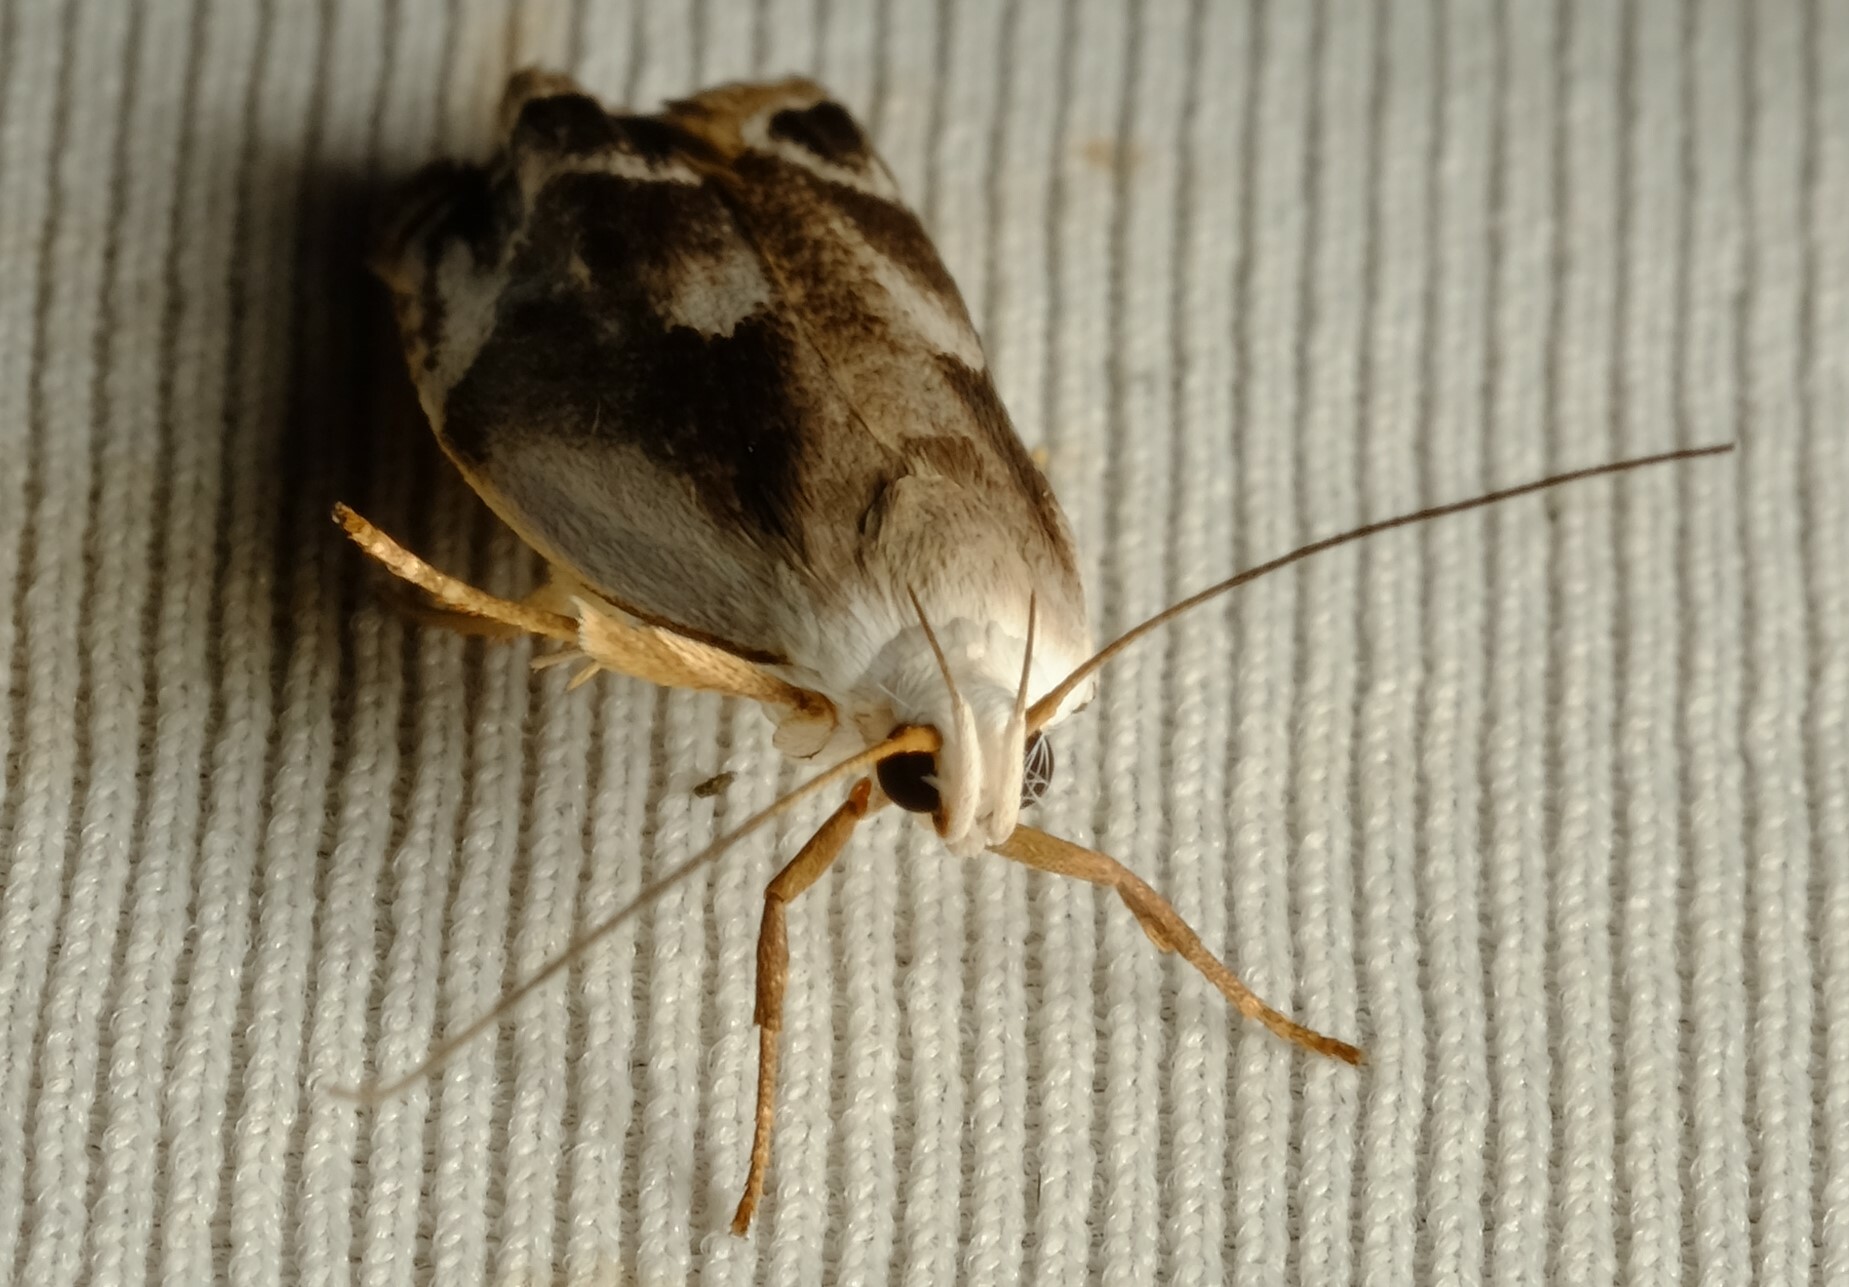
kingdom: Animalia
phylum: Arthropoda
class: Insecta
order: Lepidoptera
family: Xyloryctidae
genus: Plectophila
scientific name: Plectophila discalis
